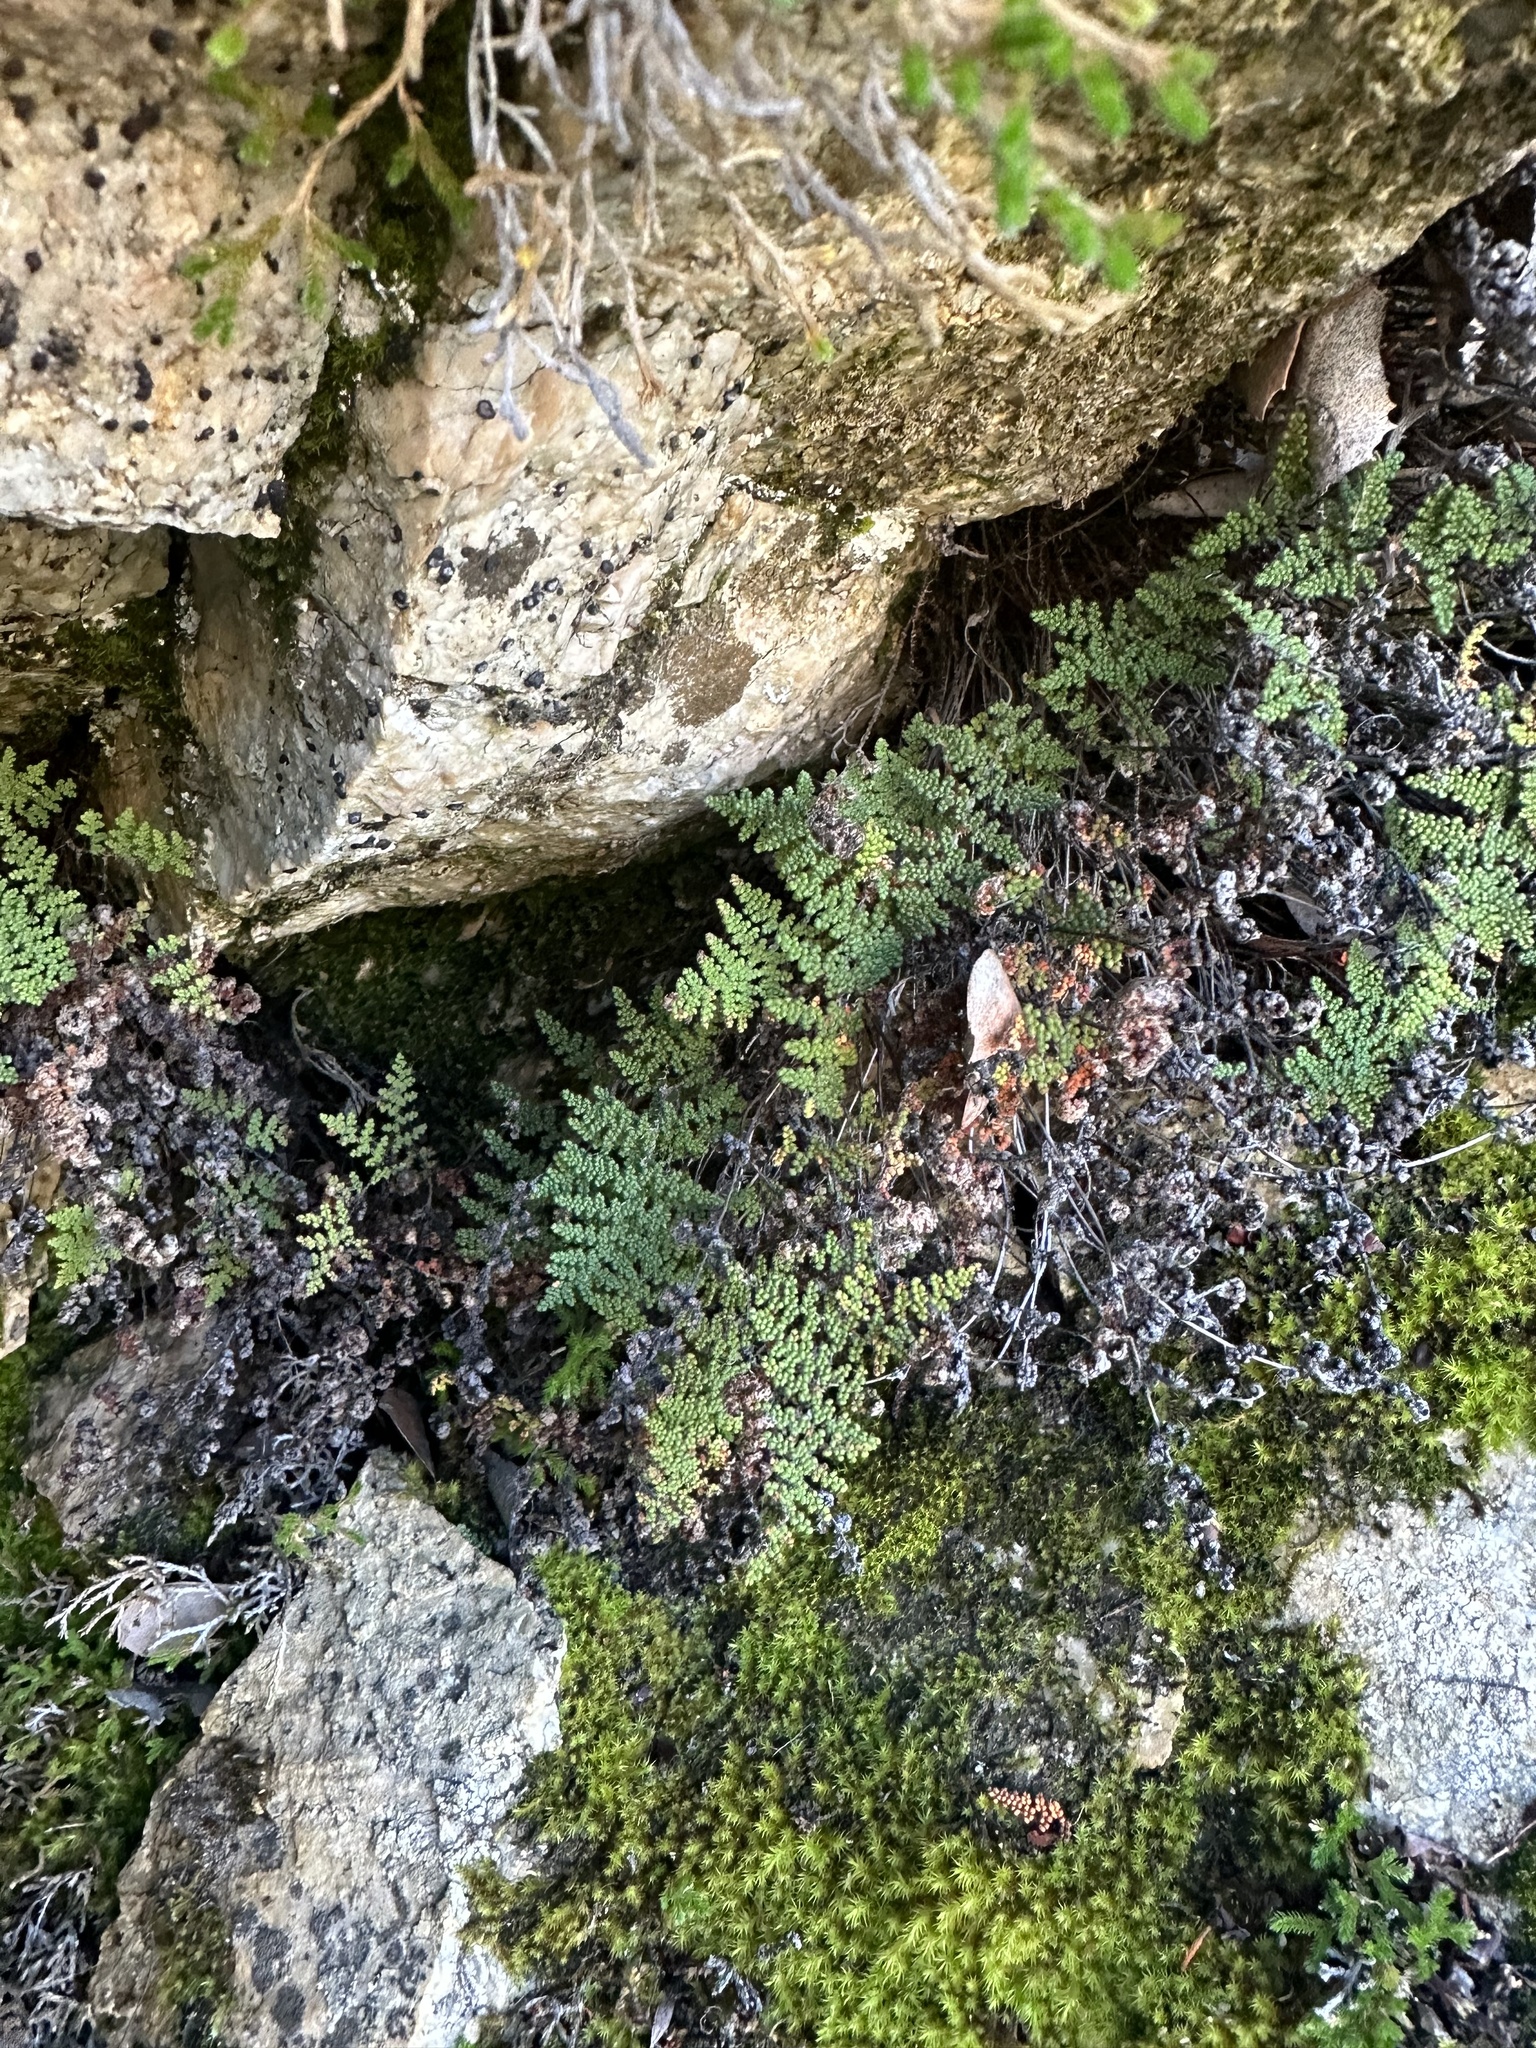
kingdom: Plantae
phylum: Tracheophyta
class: Polypodiopsida
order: Polypodiales
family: Pteridaceae
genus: Myriopteris
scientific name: Myriopteris covillei
